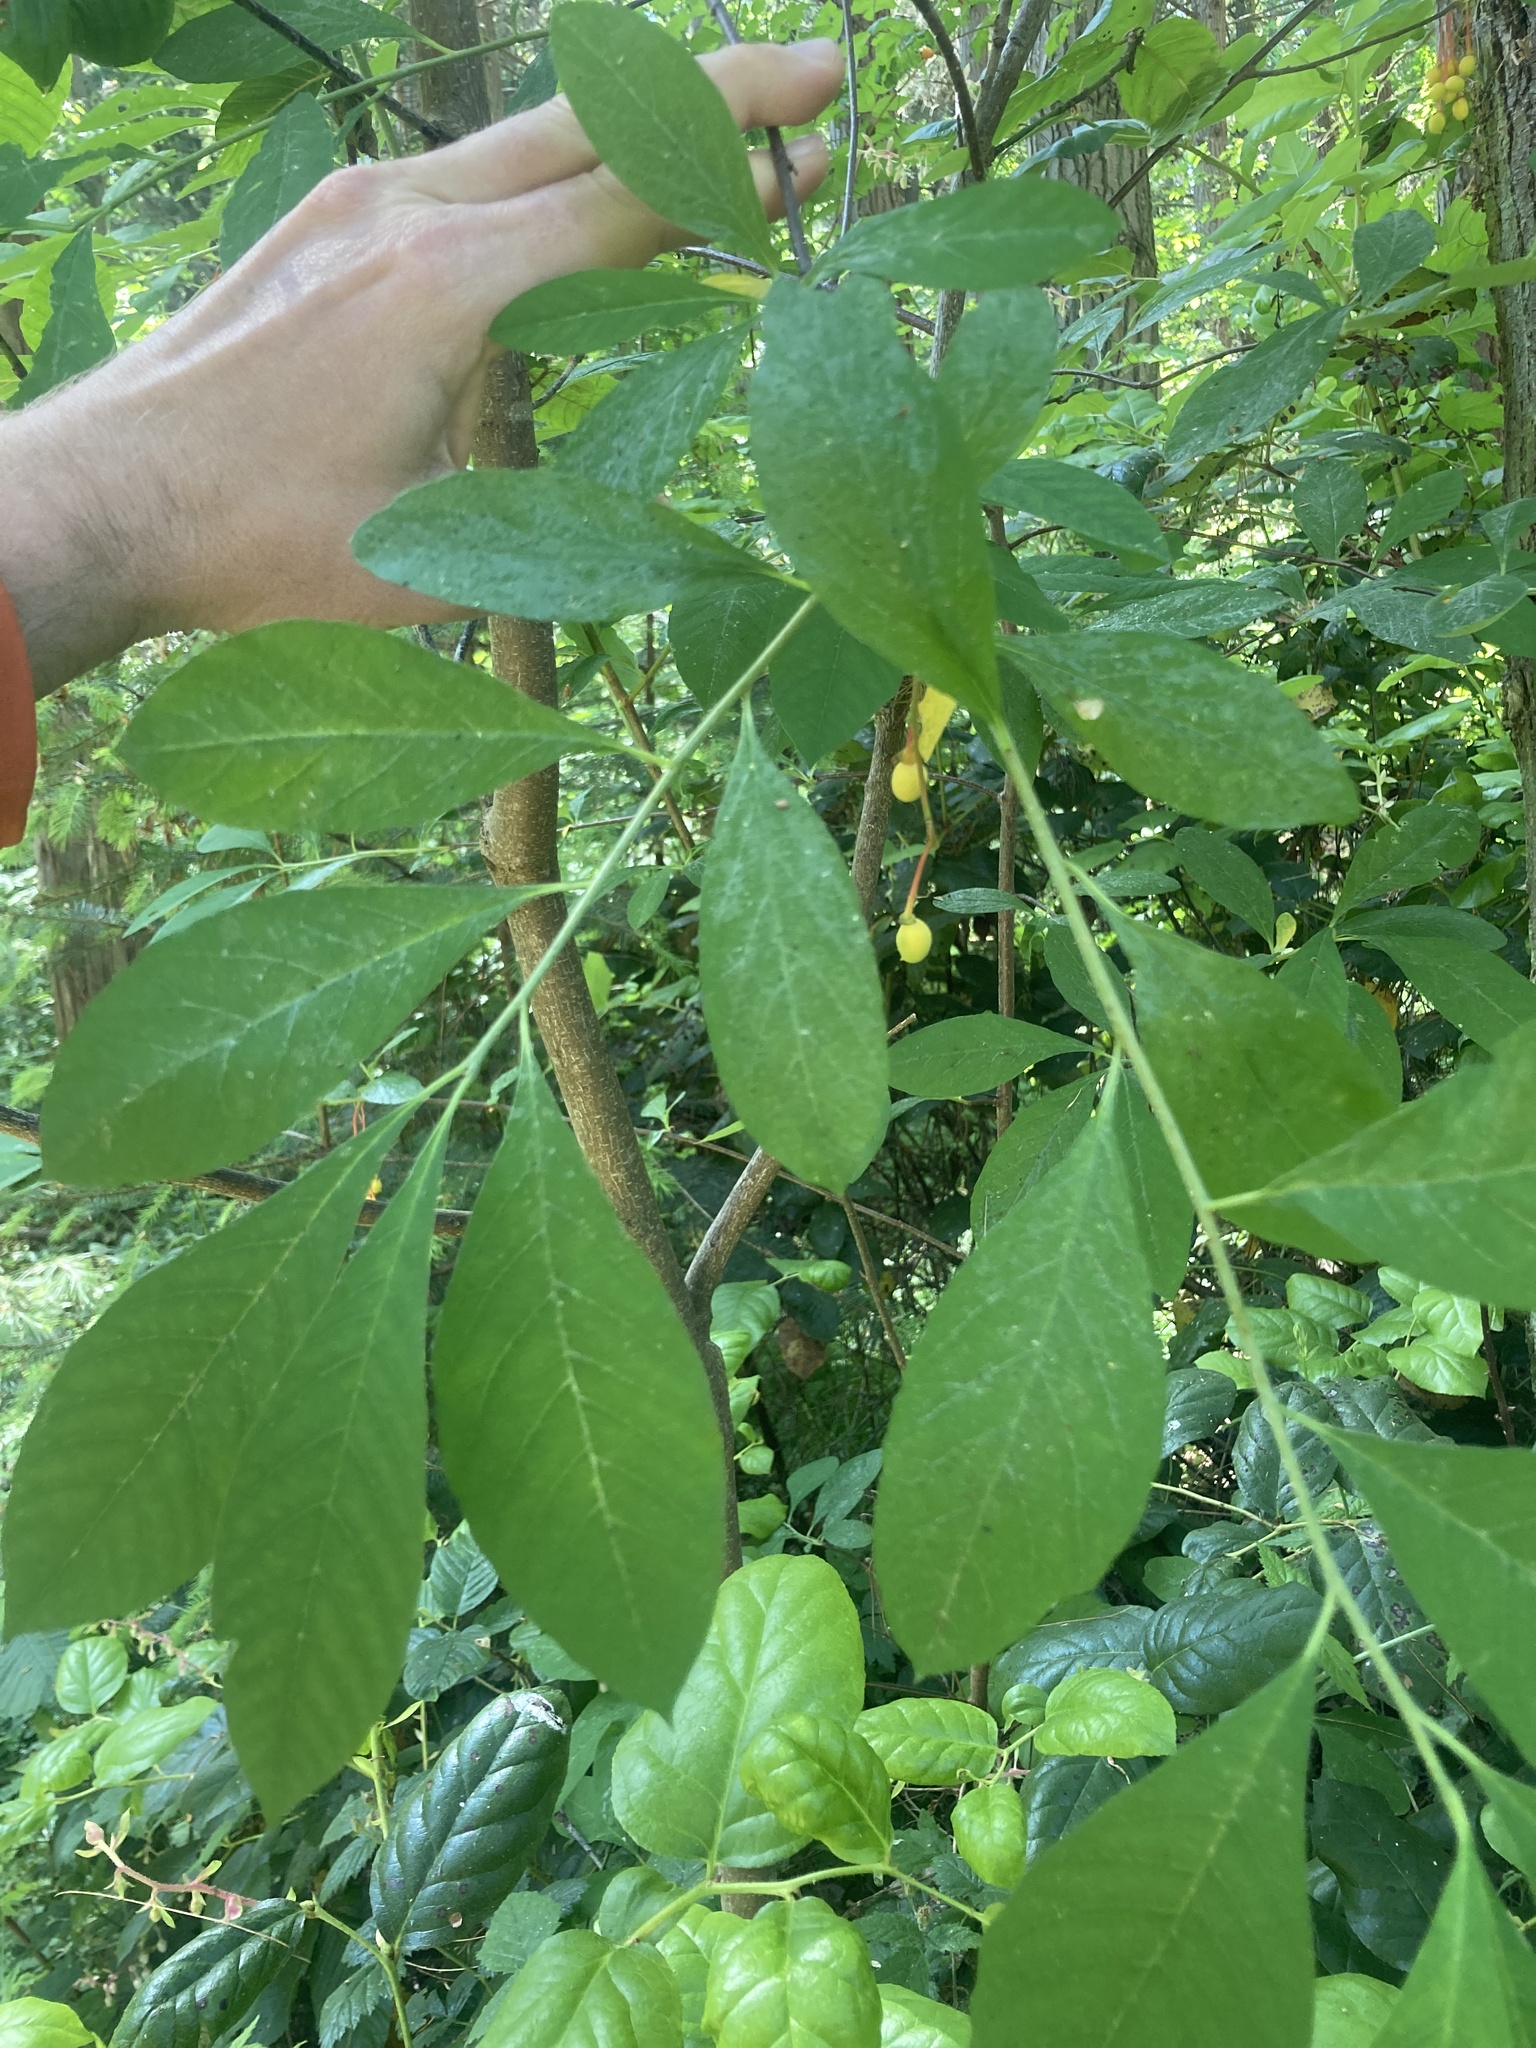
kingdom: Plantae
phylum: Tracheophyta
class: Magnoliopsida
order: Rosales
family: Rosaceae
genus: Oemleria
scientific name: Oemleria cerasiformis
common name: Osoberry
